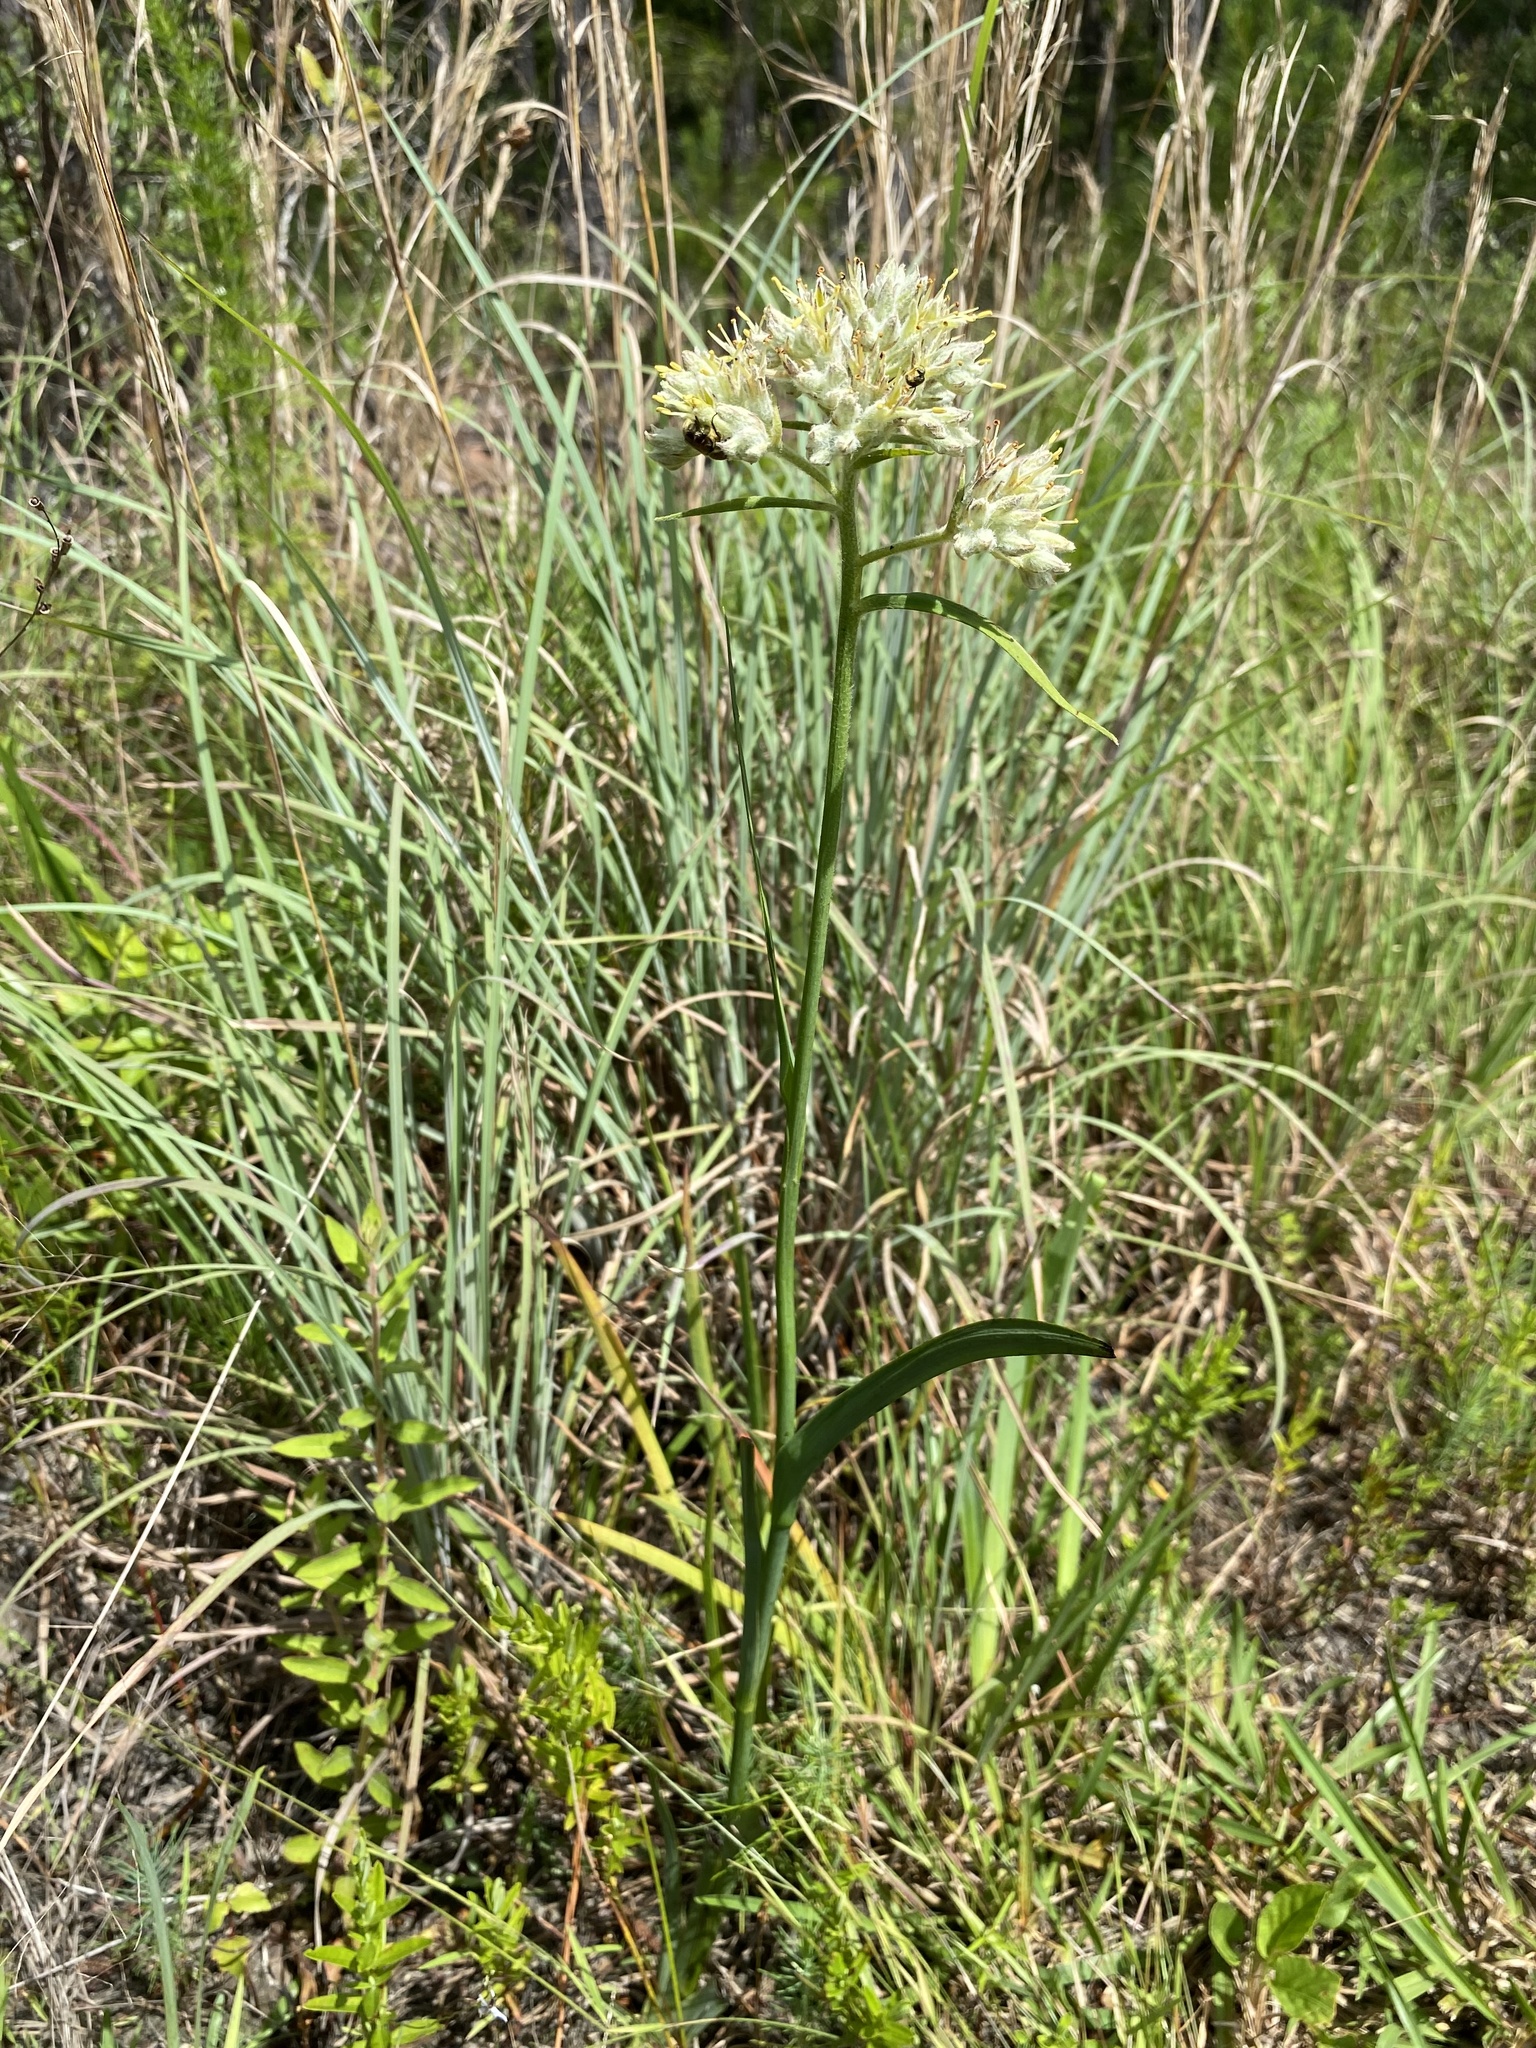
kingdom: Plantae
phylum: Tracheophyta
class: Liliopsida
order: Commelinales
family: Haemodoraceae
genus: Lachnanthes
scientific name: Lachnanthes caroliana
